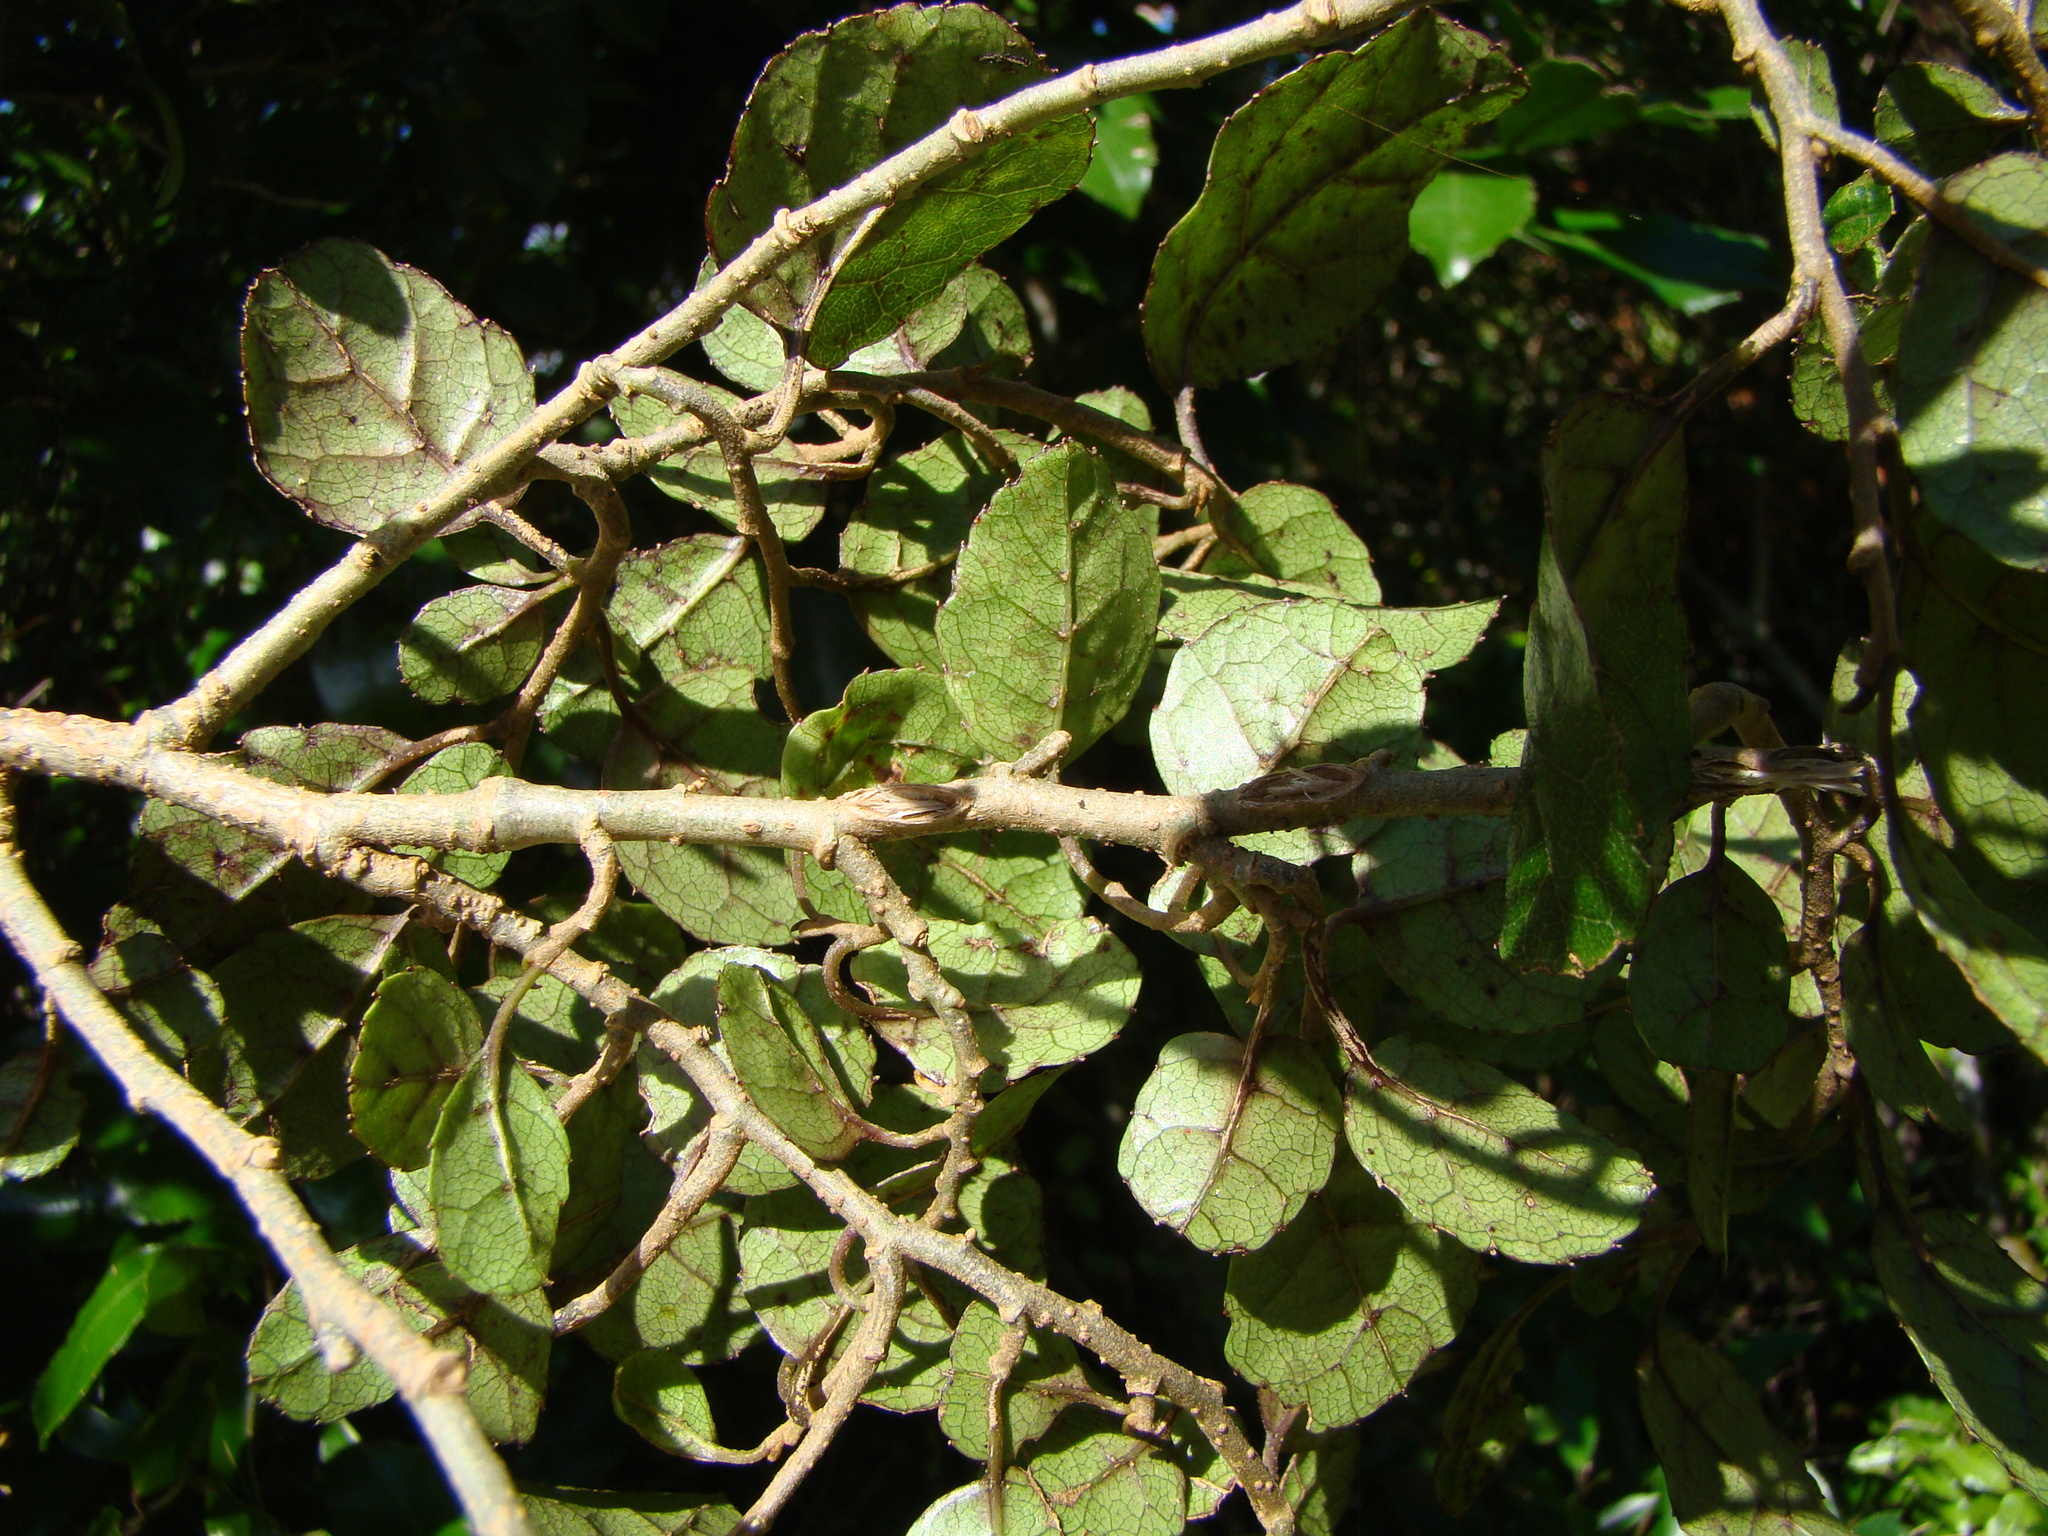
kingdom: Plantae
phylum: Tracheophyta
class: Magnoliopsida
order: Asterales
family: Rousseaceae
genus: Carpodetus
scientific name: Carpodetus serratus
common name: White mapau
